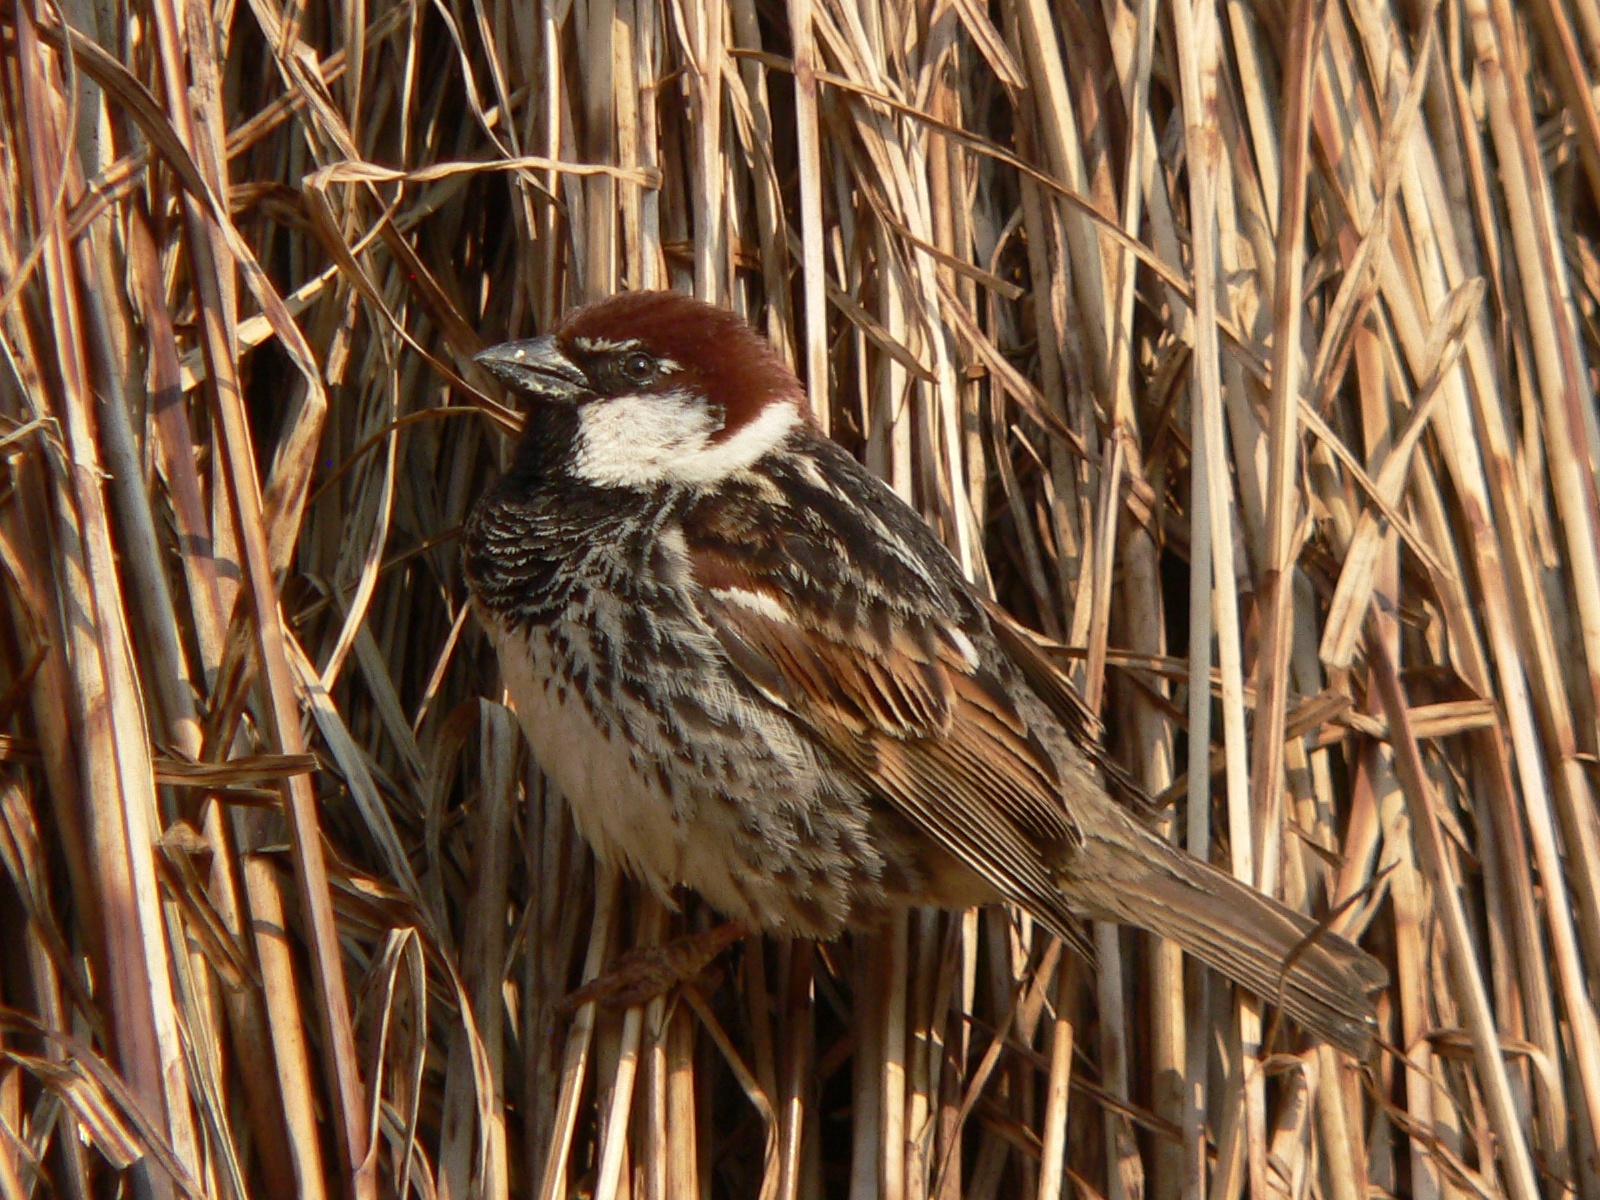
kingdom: Animalia
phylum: Chordata
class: Aves
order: Passeriformes
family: Passeridae
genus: Passer
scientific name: Passer hispaniolensis
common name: Spanish sparrow
